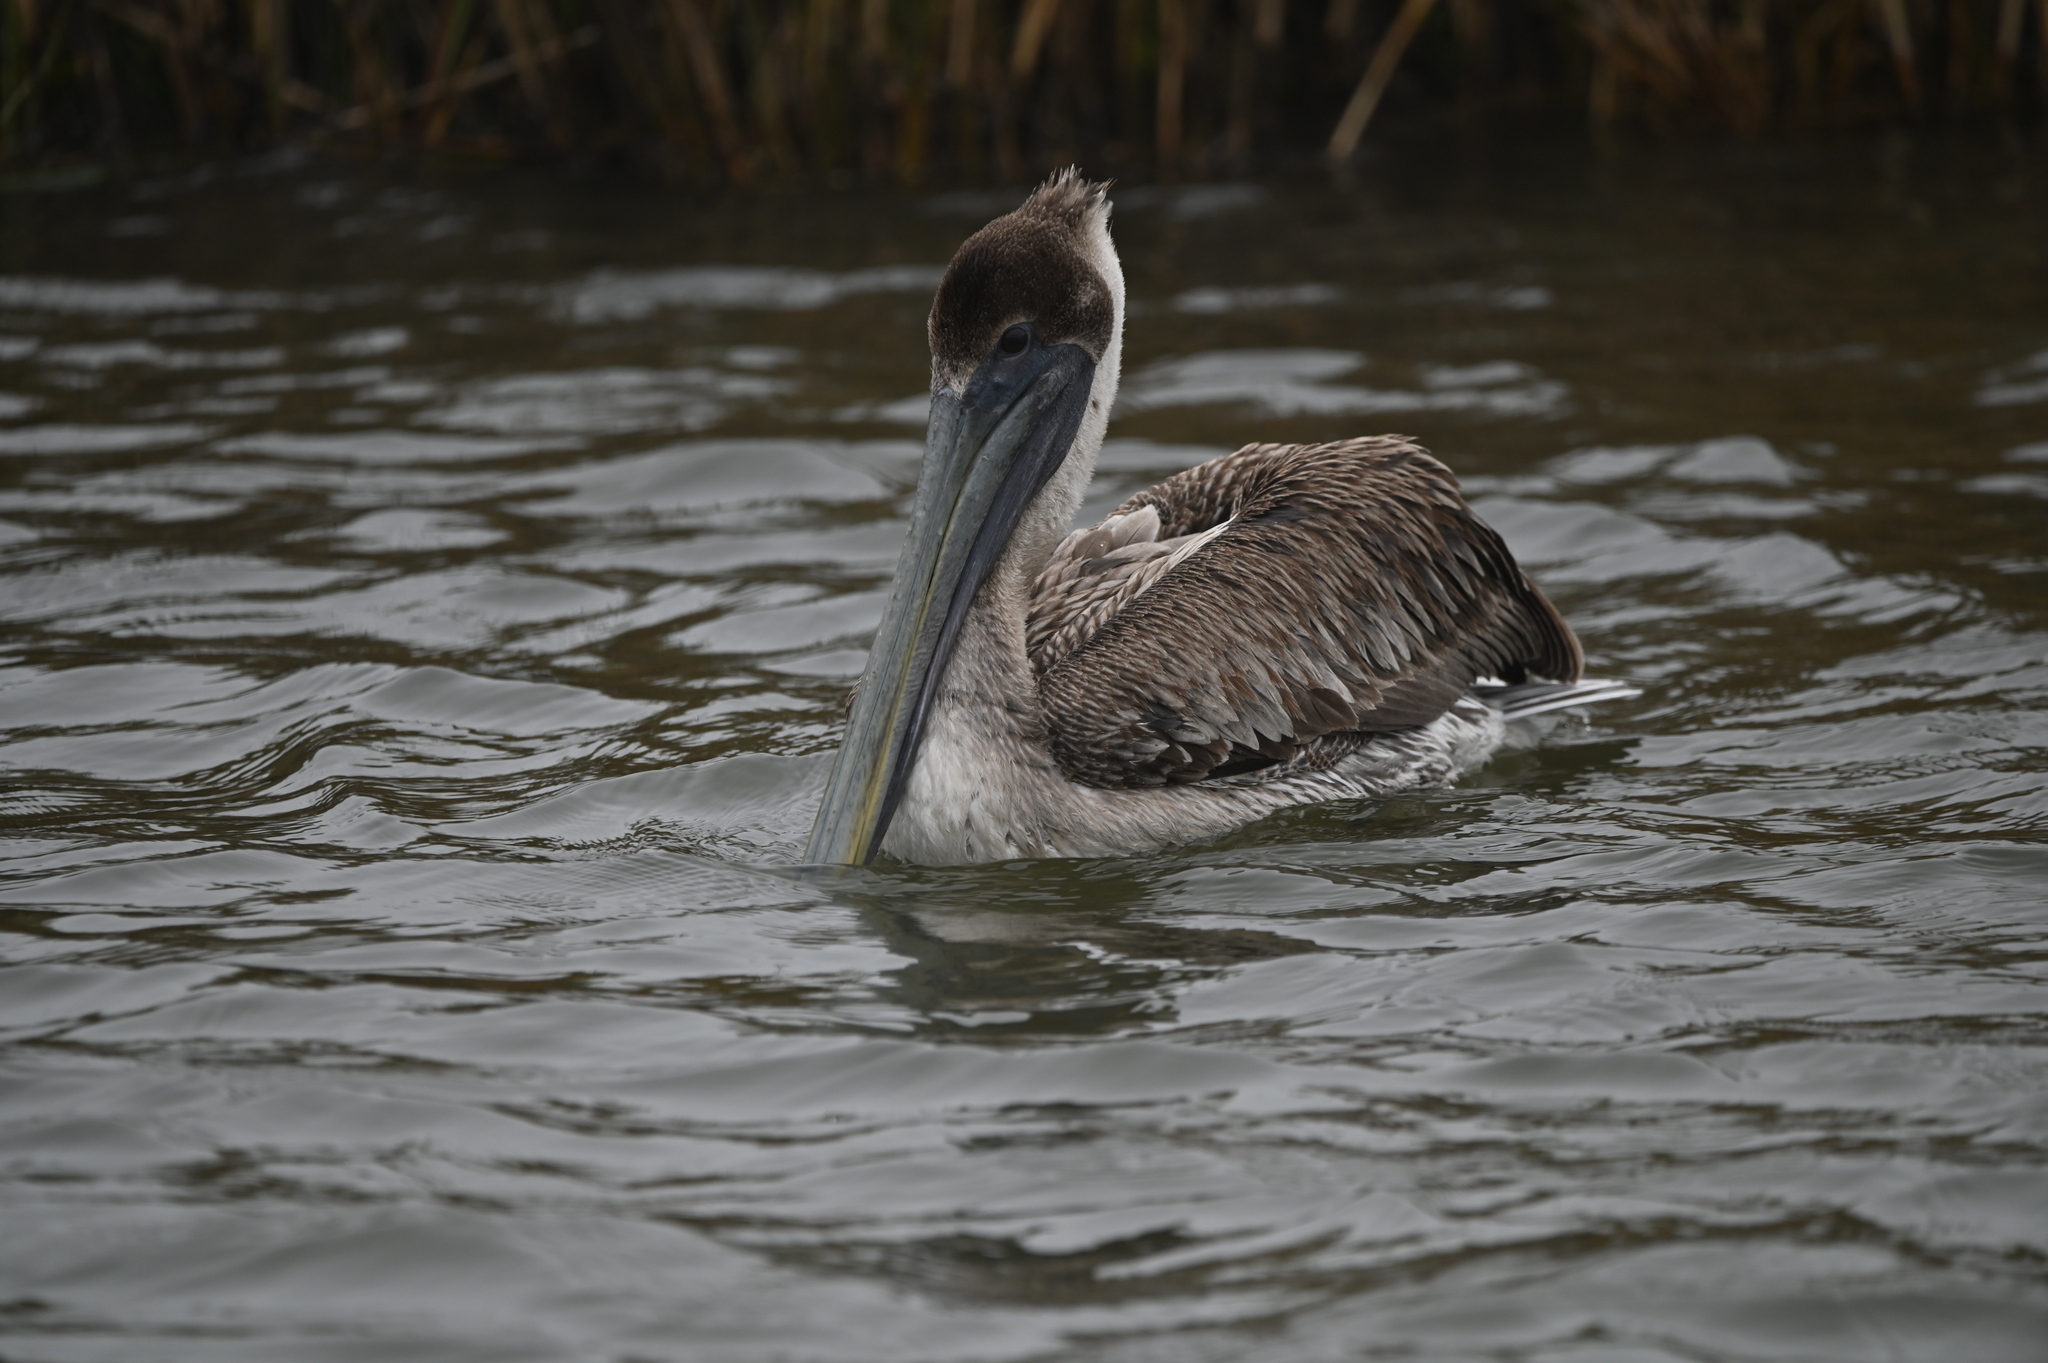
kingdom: Animalia
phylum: Chordata
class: Aves
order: Pelecaniformes
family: Pelecanidae
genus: Pelecanus
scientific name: Pelecanus occidentalis
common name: Brown pelican
